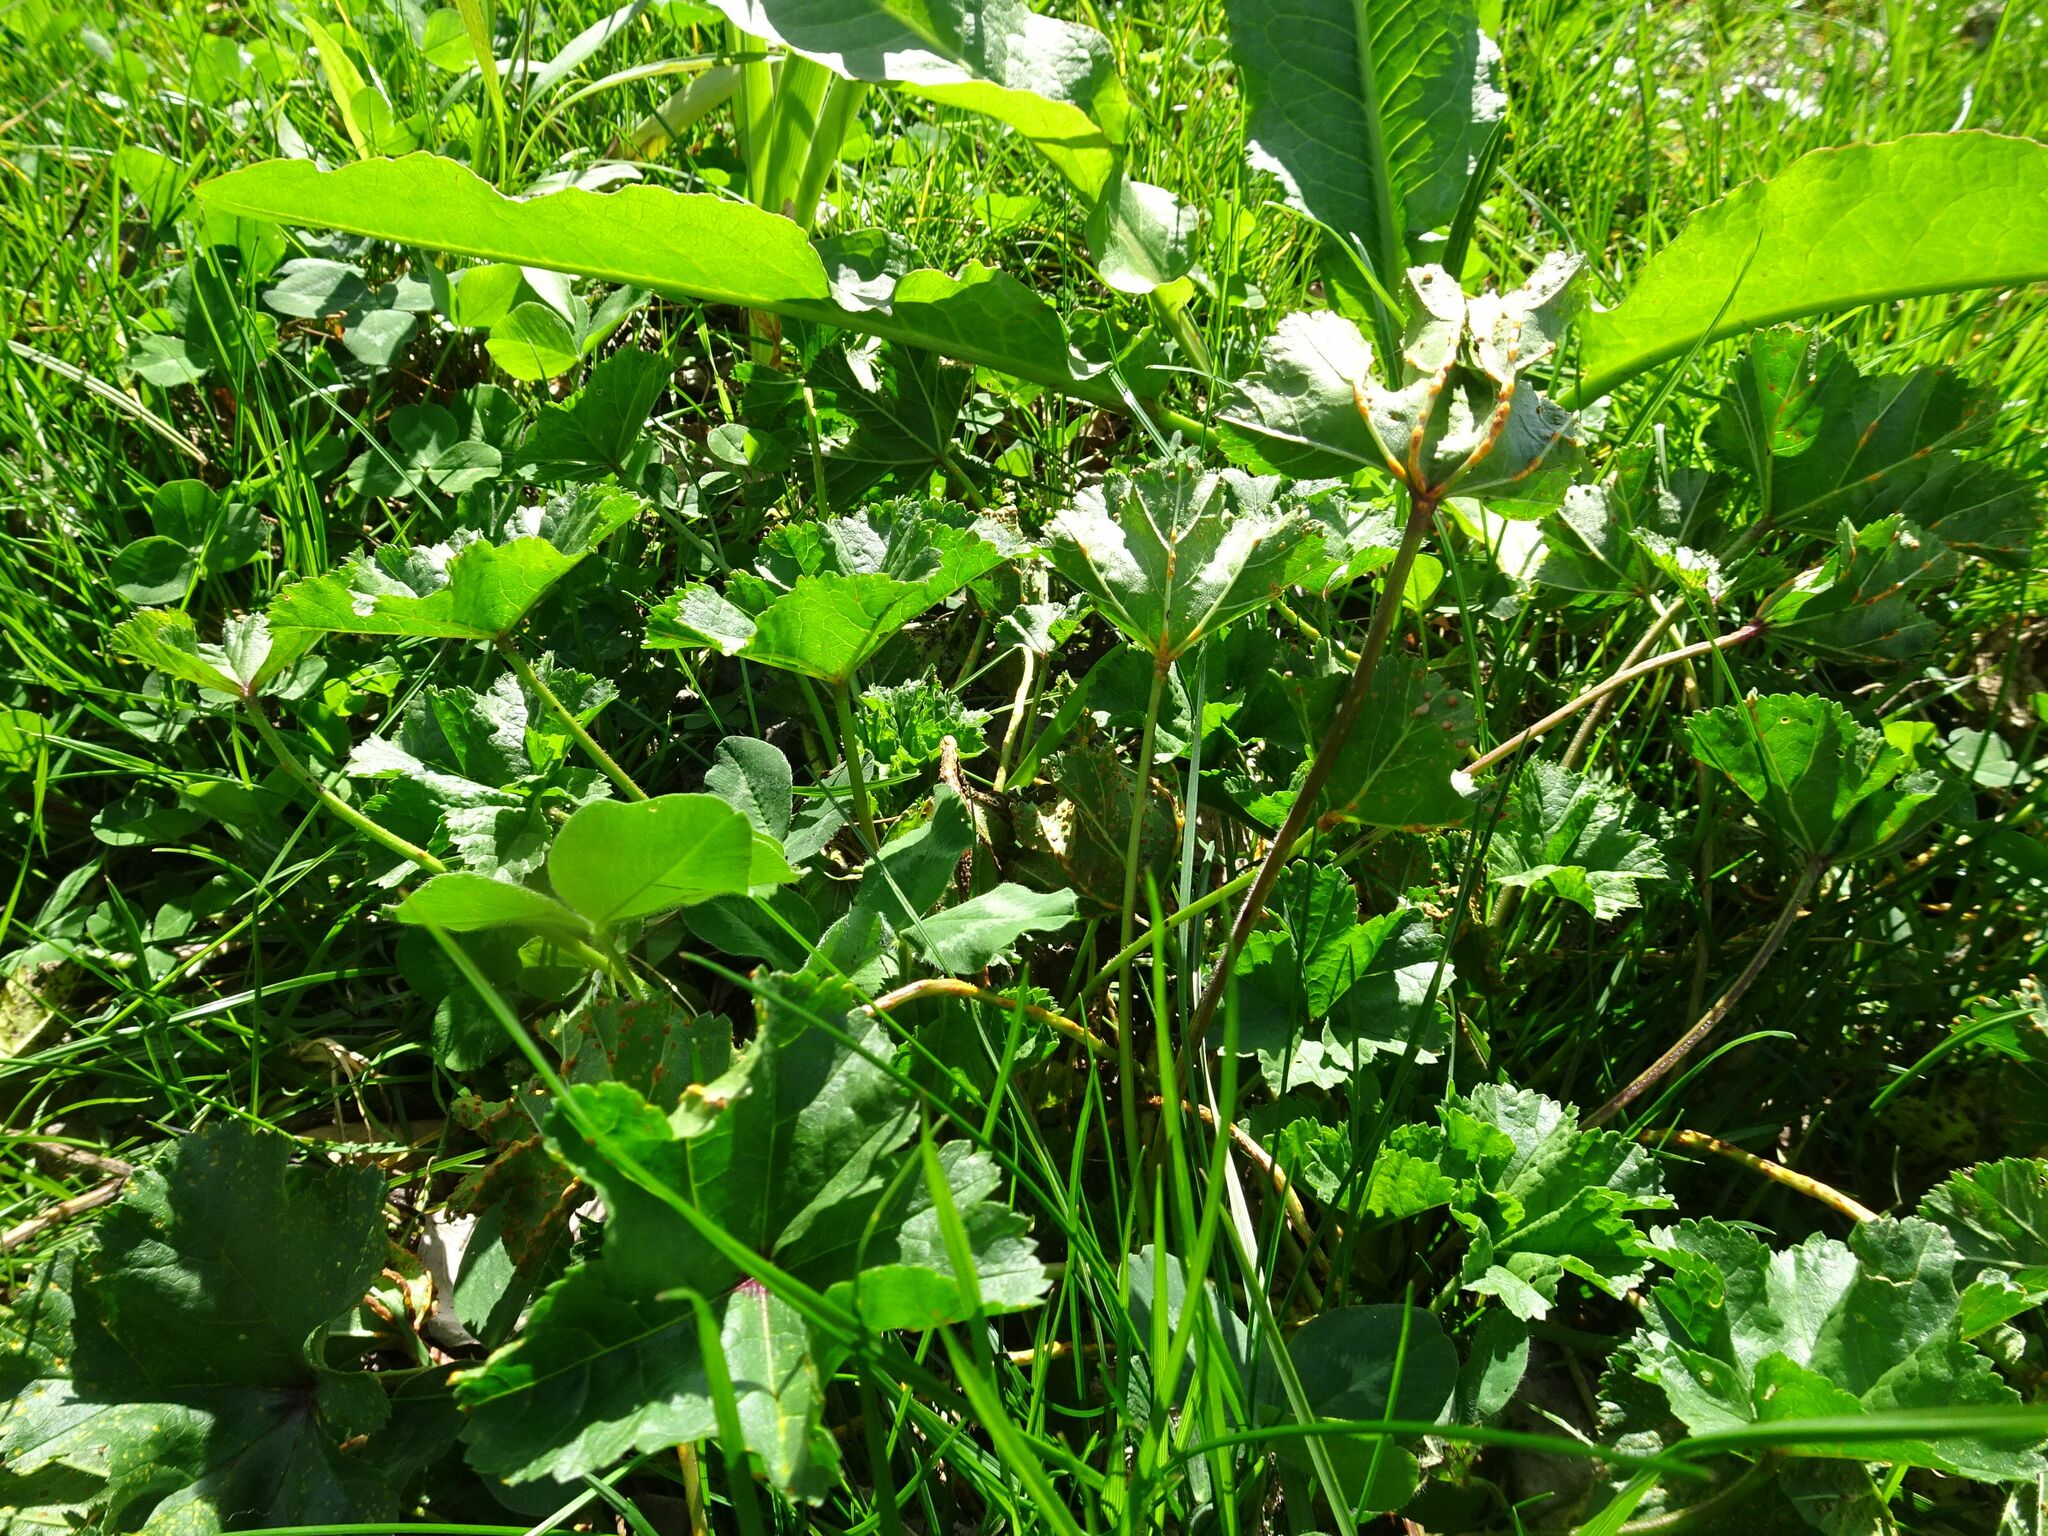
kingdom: Fungi
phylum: Basidiomycota
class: Pucciniomycetes
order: Pucciniales
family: Pucciniaceae
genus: Puccinia
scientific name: Puccinia malvacearum
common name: Hollyhock rust
